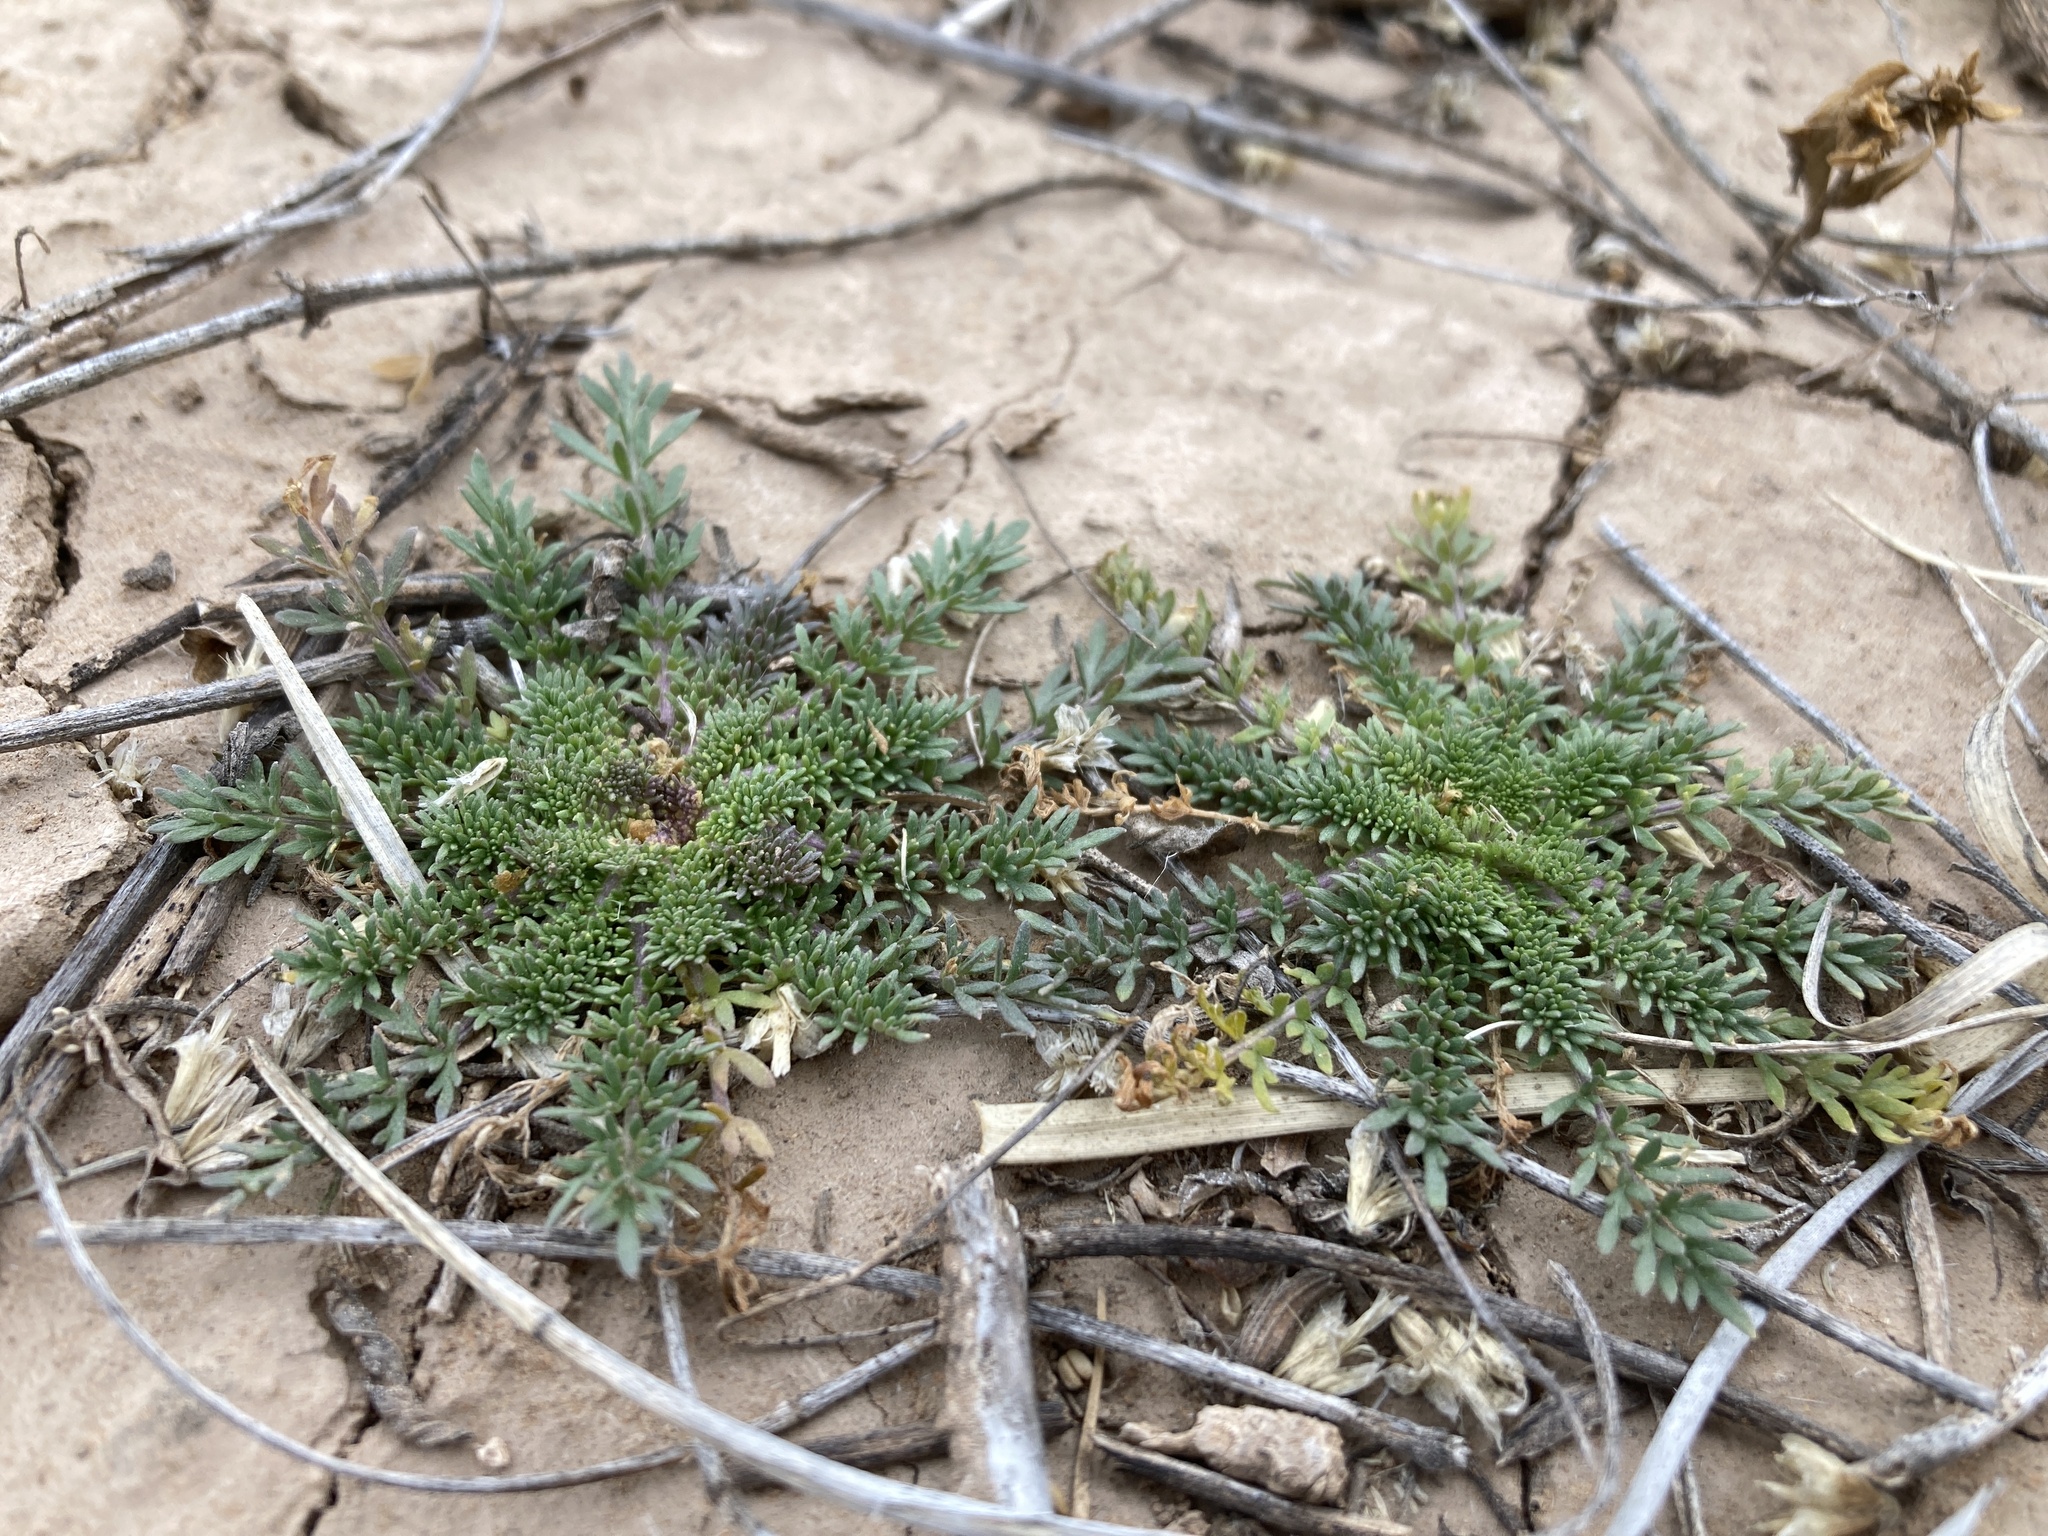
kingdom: Plantae
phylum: Tracheophyta
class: Magnoliopsida
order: Brassicales
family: Brassicaceae
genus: Selenia
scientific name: Selenia dissecta
